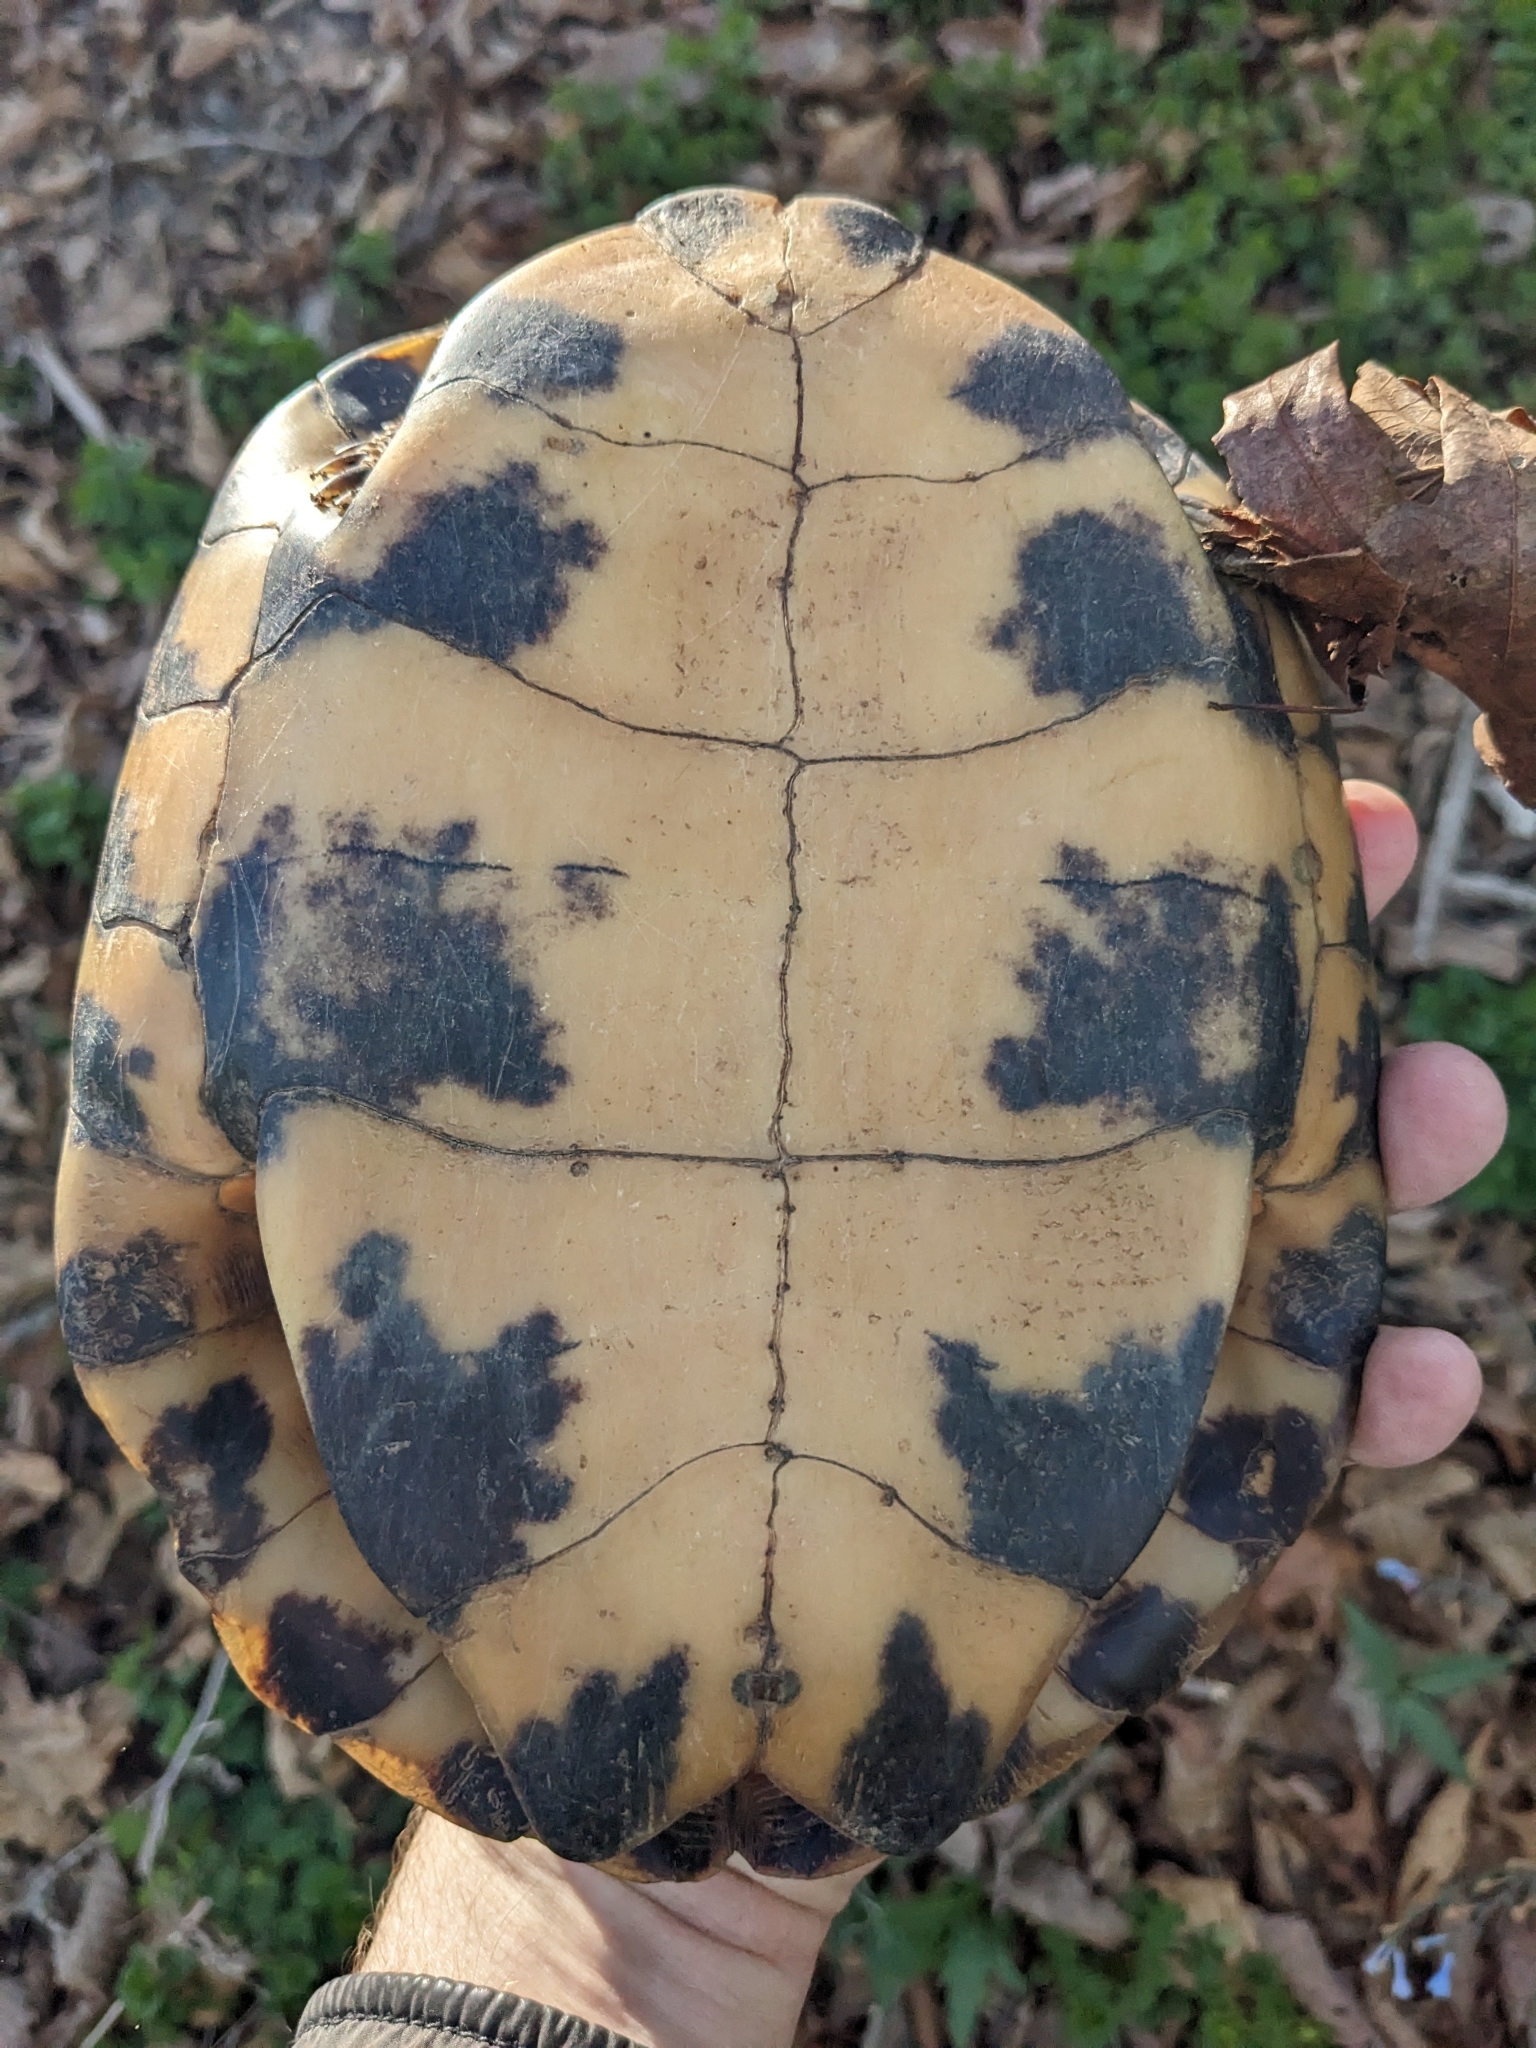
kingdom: Animalia
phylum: Chordata
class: Testudines
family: Emydidae
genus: Glyptemys
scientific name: Glyptemys insculpta
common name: Wood turtle
